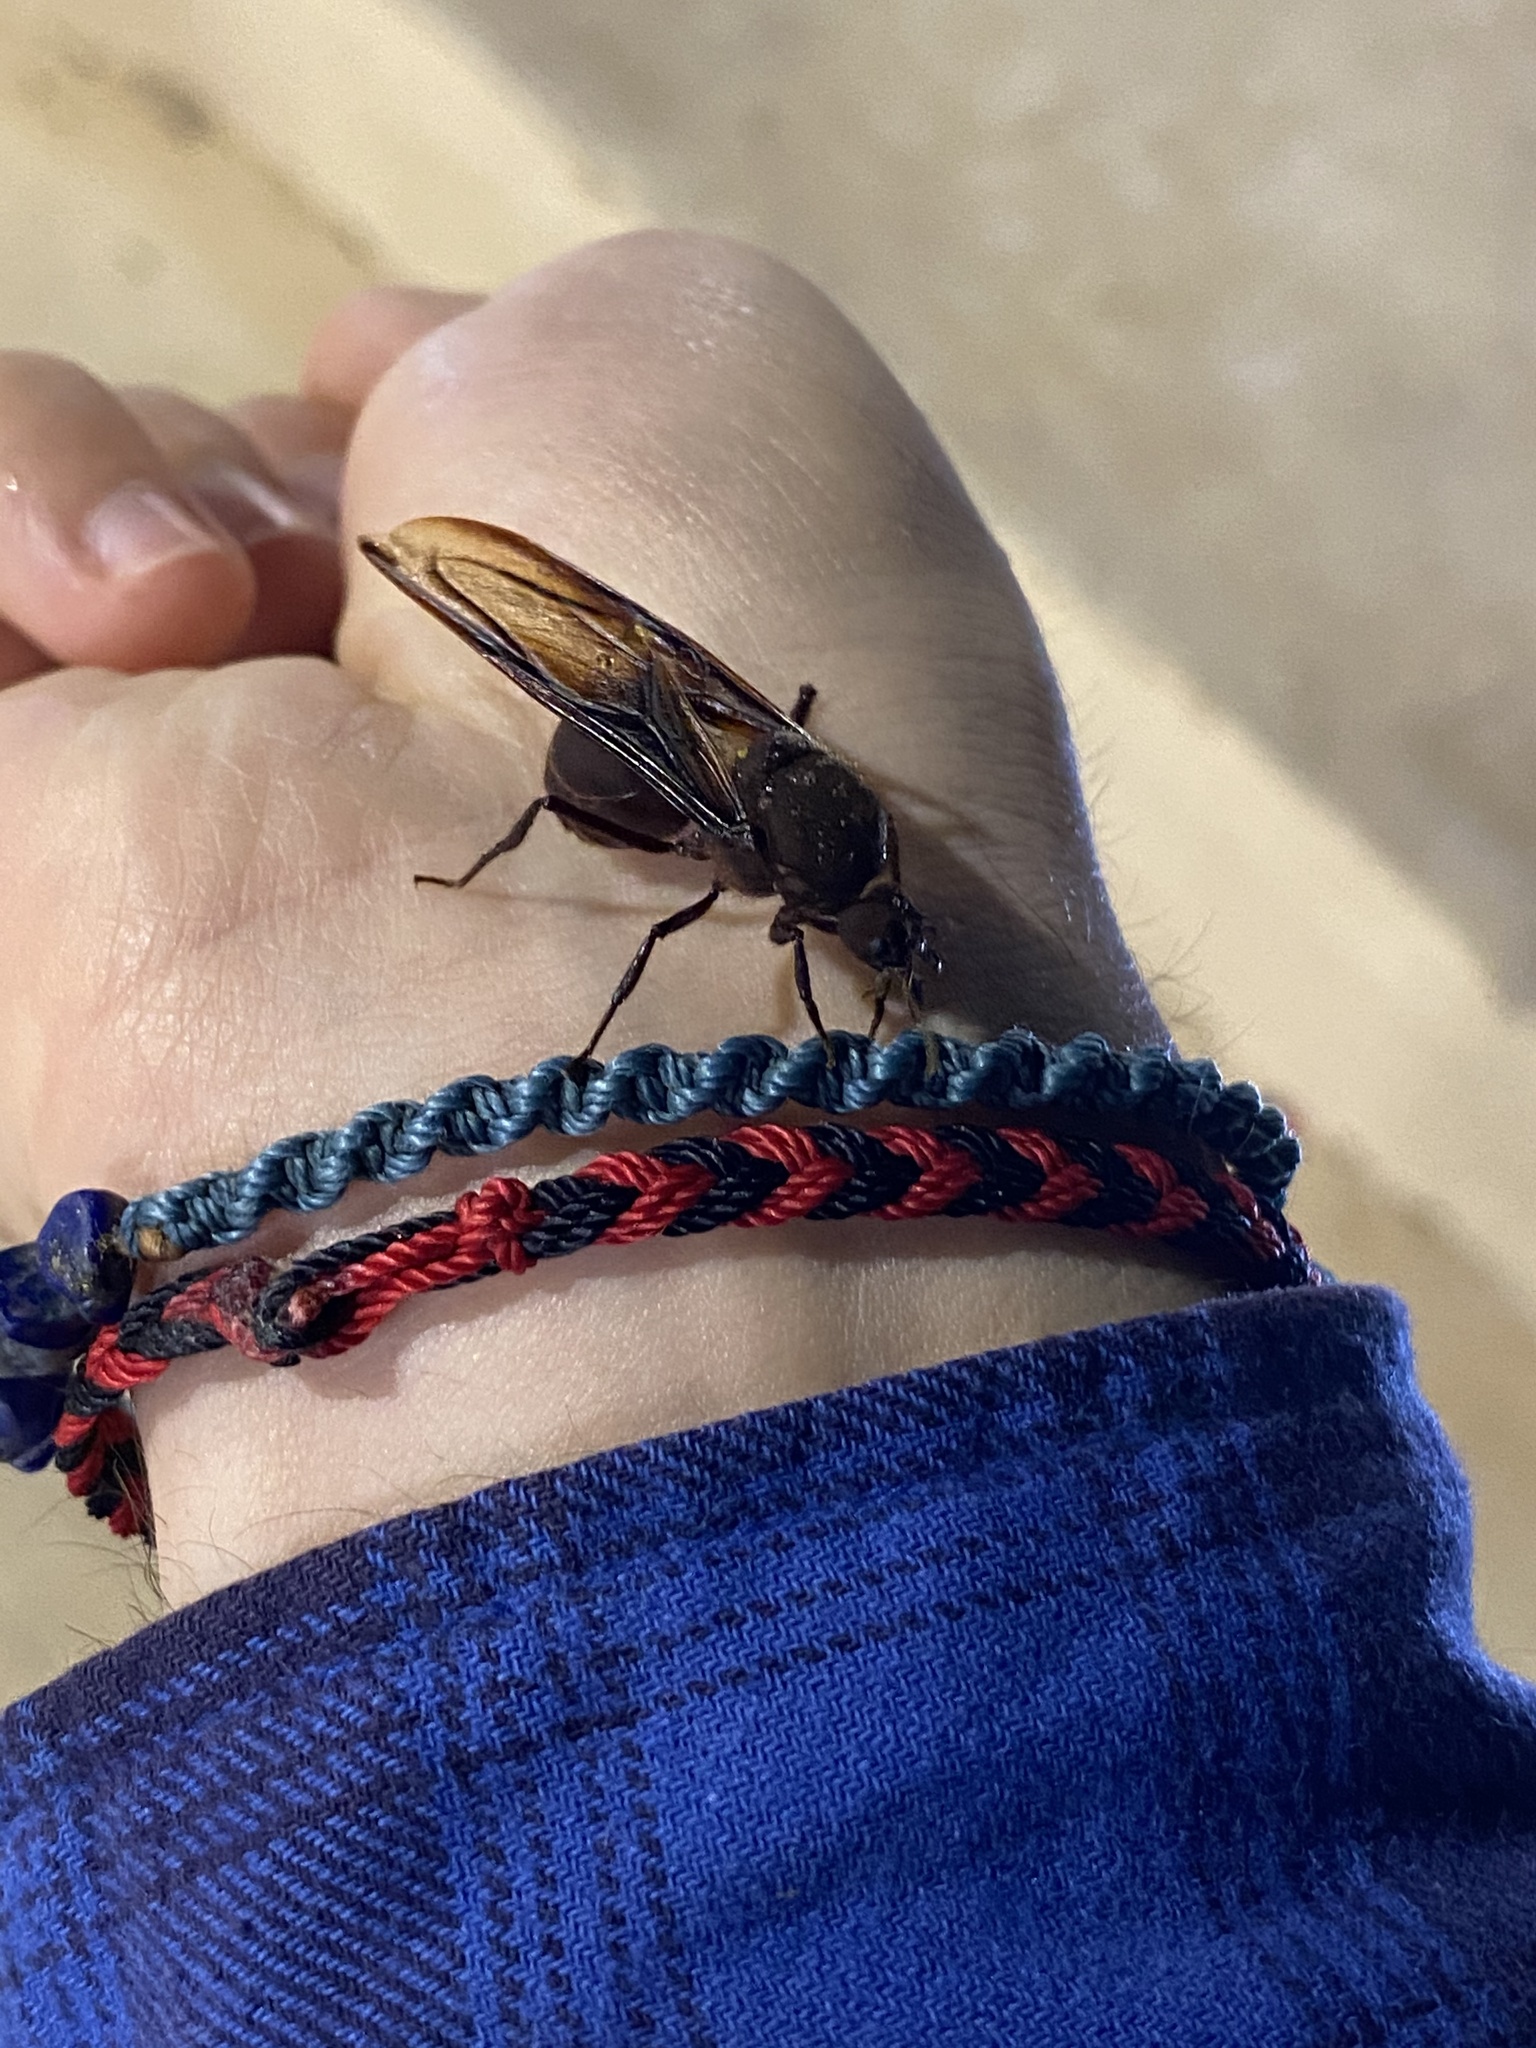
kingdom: Animalia
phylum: Arthropoda
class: Insecta
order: Hymenoptera
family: Formicidae
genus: Atta
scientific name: Atta cephalotes
